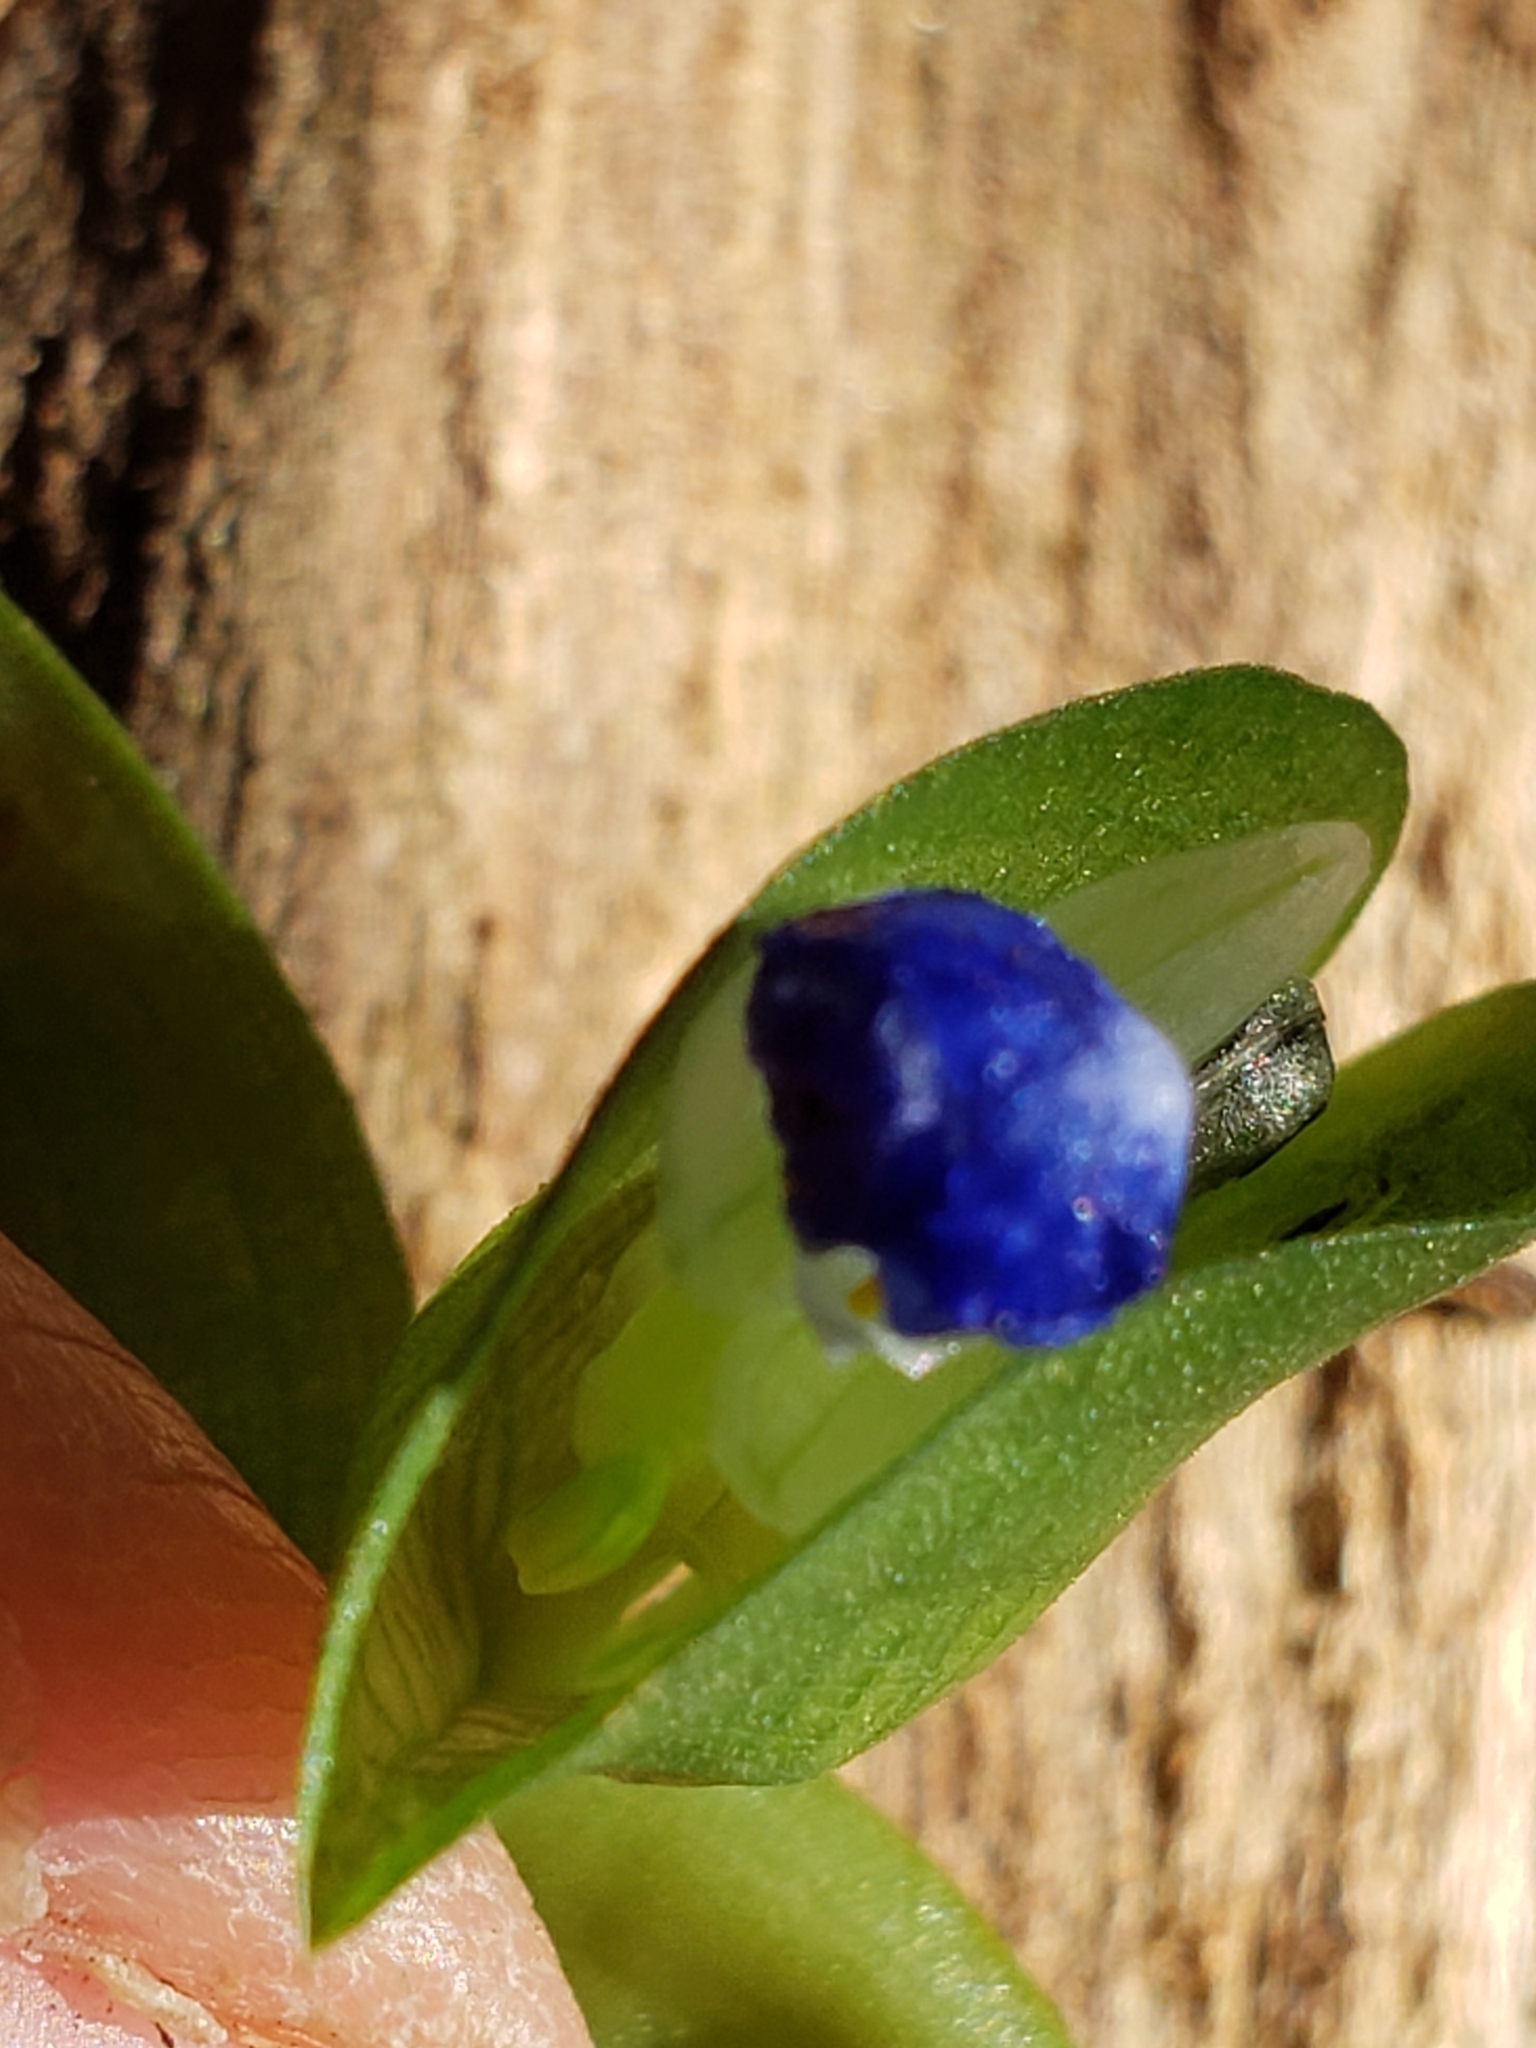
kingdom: Plantae
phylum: Tracheophyta
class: Liliopsida
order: Commelinales
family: Commelinaceae
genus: Commelina
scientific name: Commelina communis
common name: Asiatic dayflower
